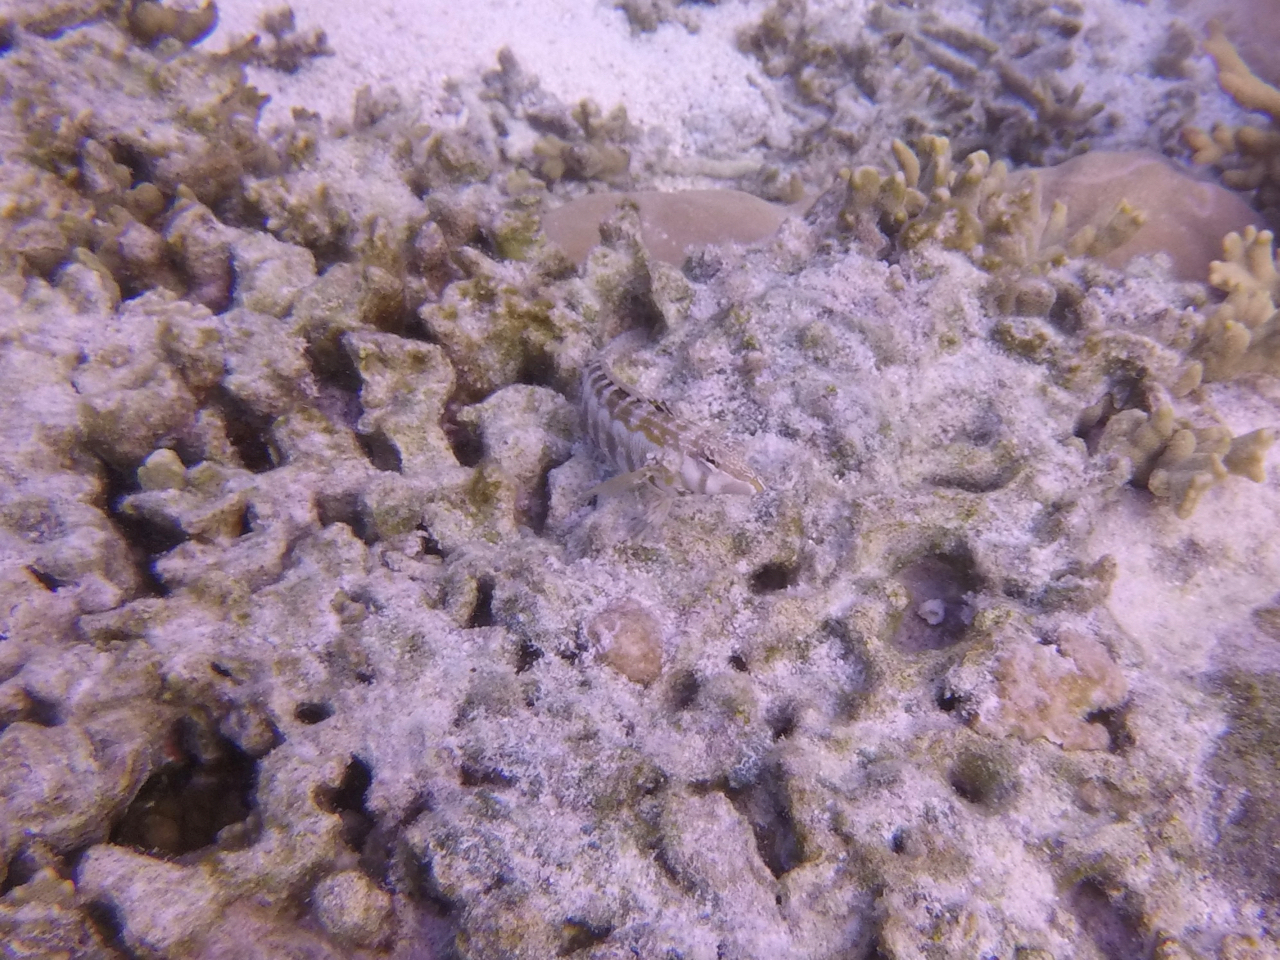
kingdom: Animalia
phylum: Chordata
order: Perciformes
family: Pinguipedidae
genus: Parapercis
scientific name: Parapercis australis
